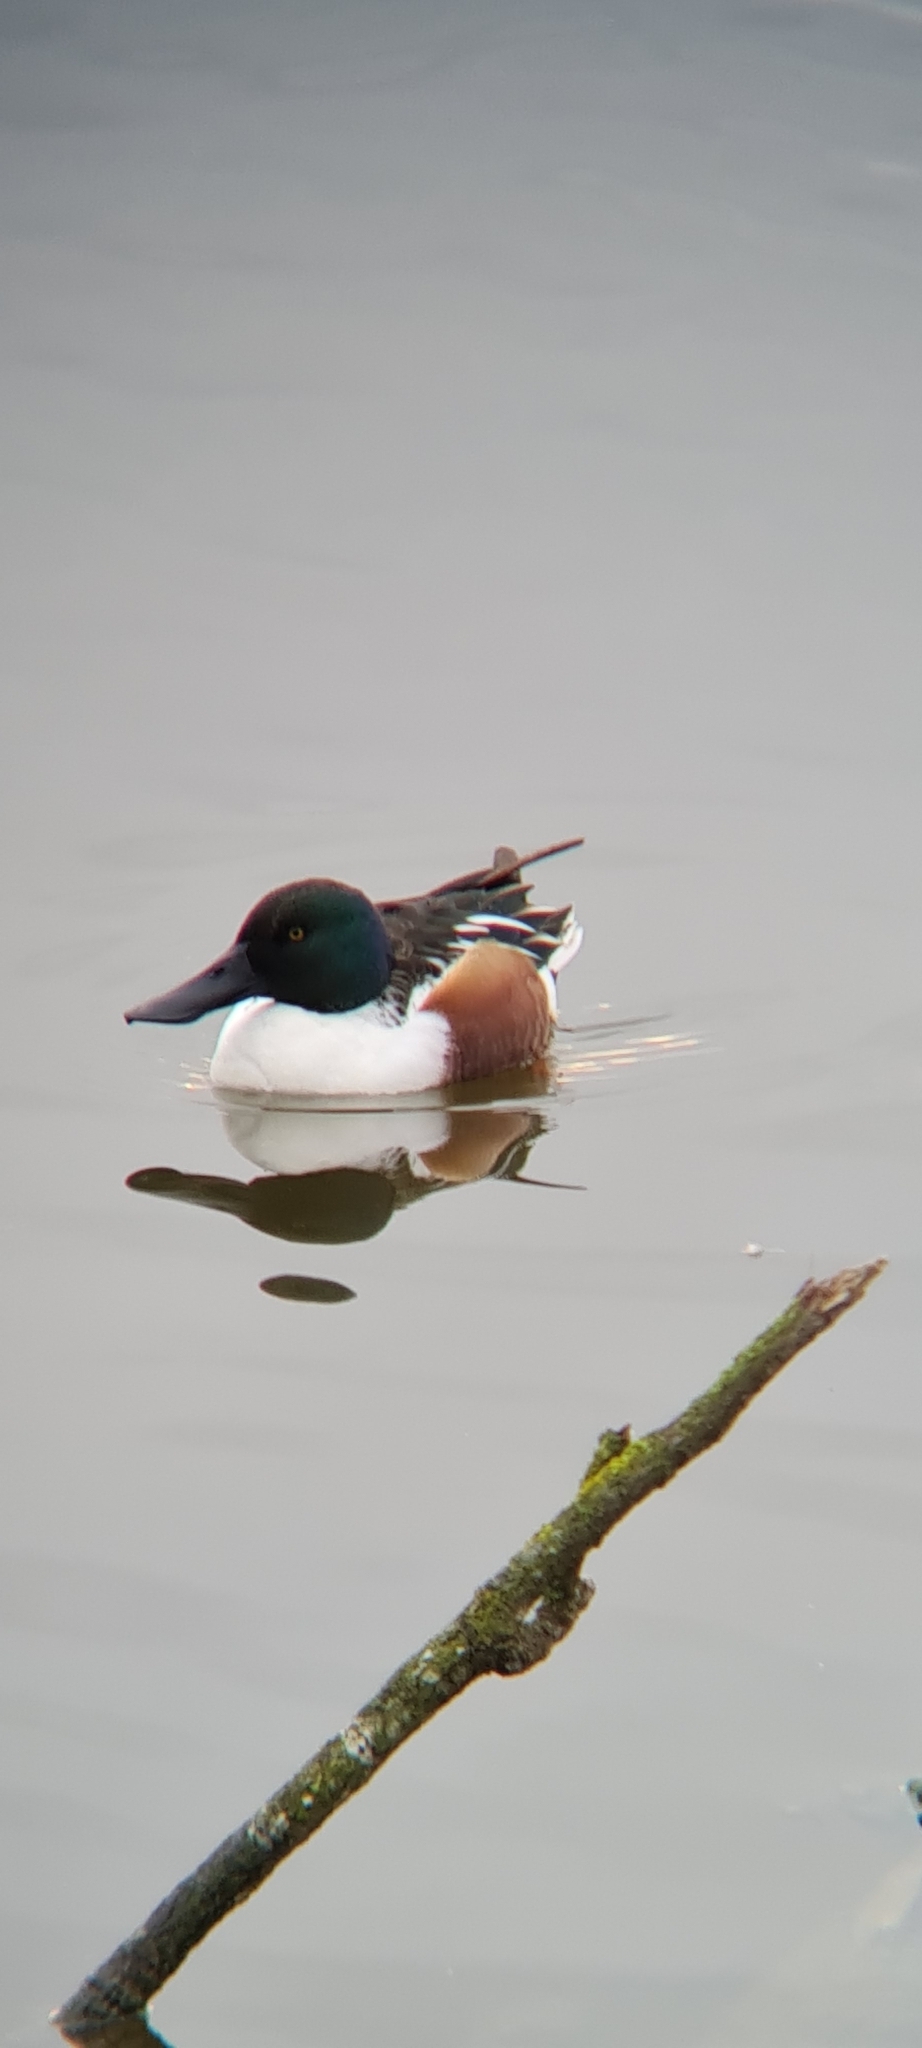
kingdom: Animalia
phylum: Chordata
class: Aves
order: Anseriformes
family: Anatidae
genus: Spatula
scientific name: Spatula clypeata
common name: Northern shoveler
